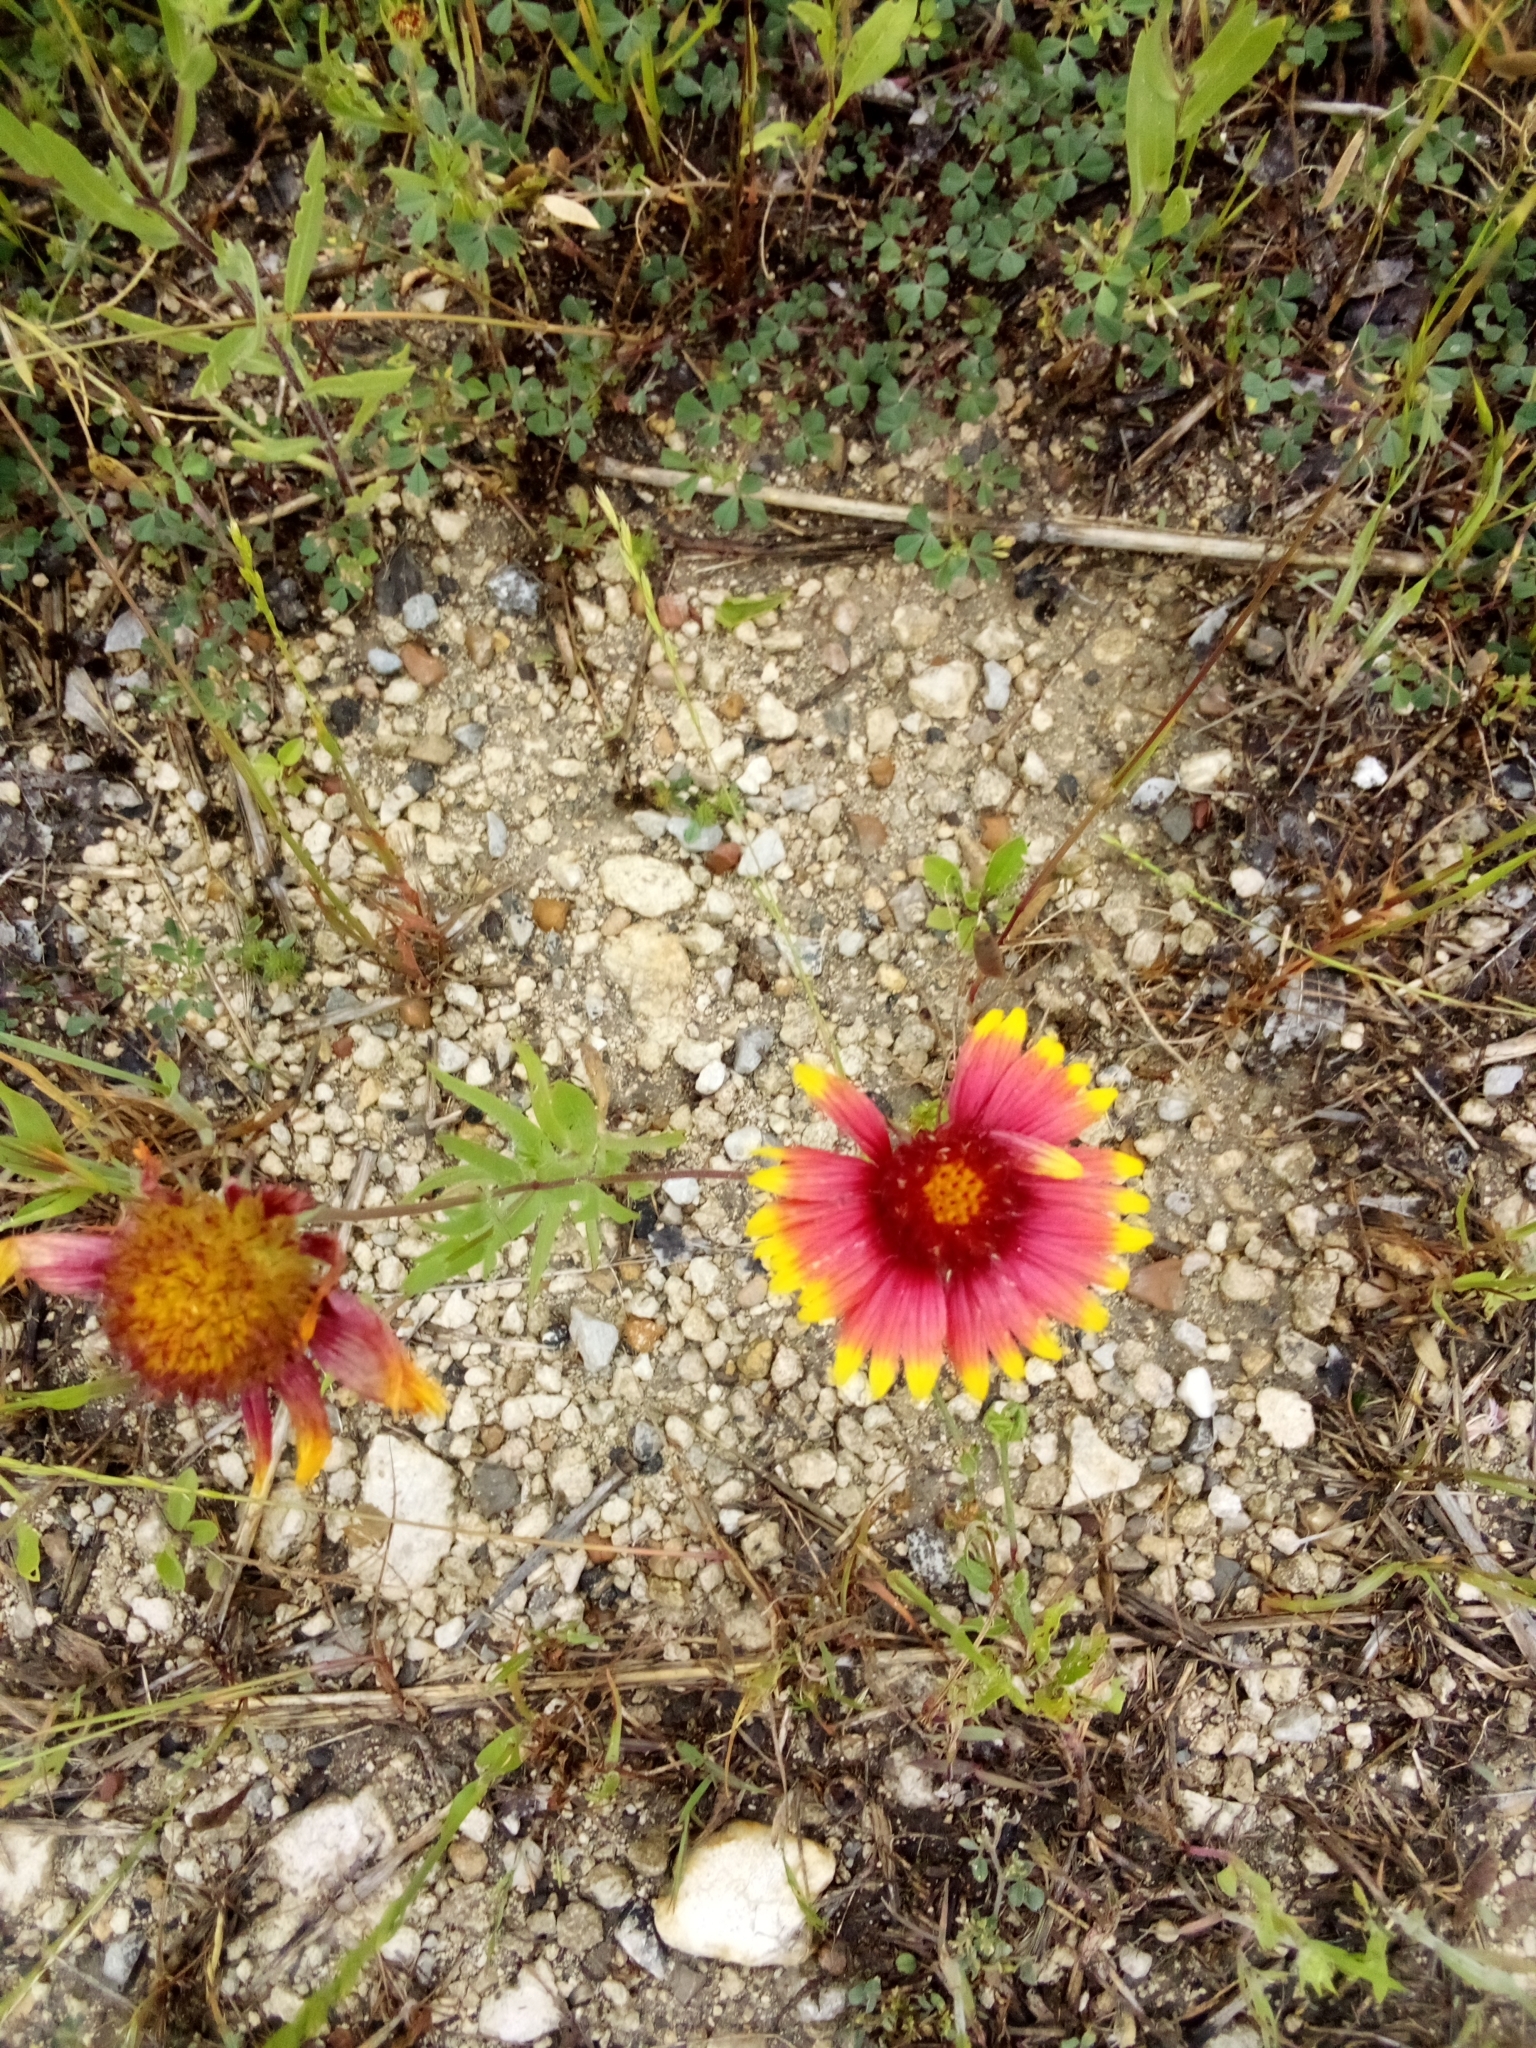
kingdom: Plantae
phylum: Tracheophyta
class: Magnoliopsida
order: Asterales
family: Asteraceae
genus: Gaillardia
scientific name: Gaillardia pulchella
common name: Firewheel
